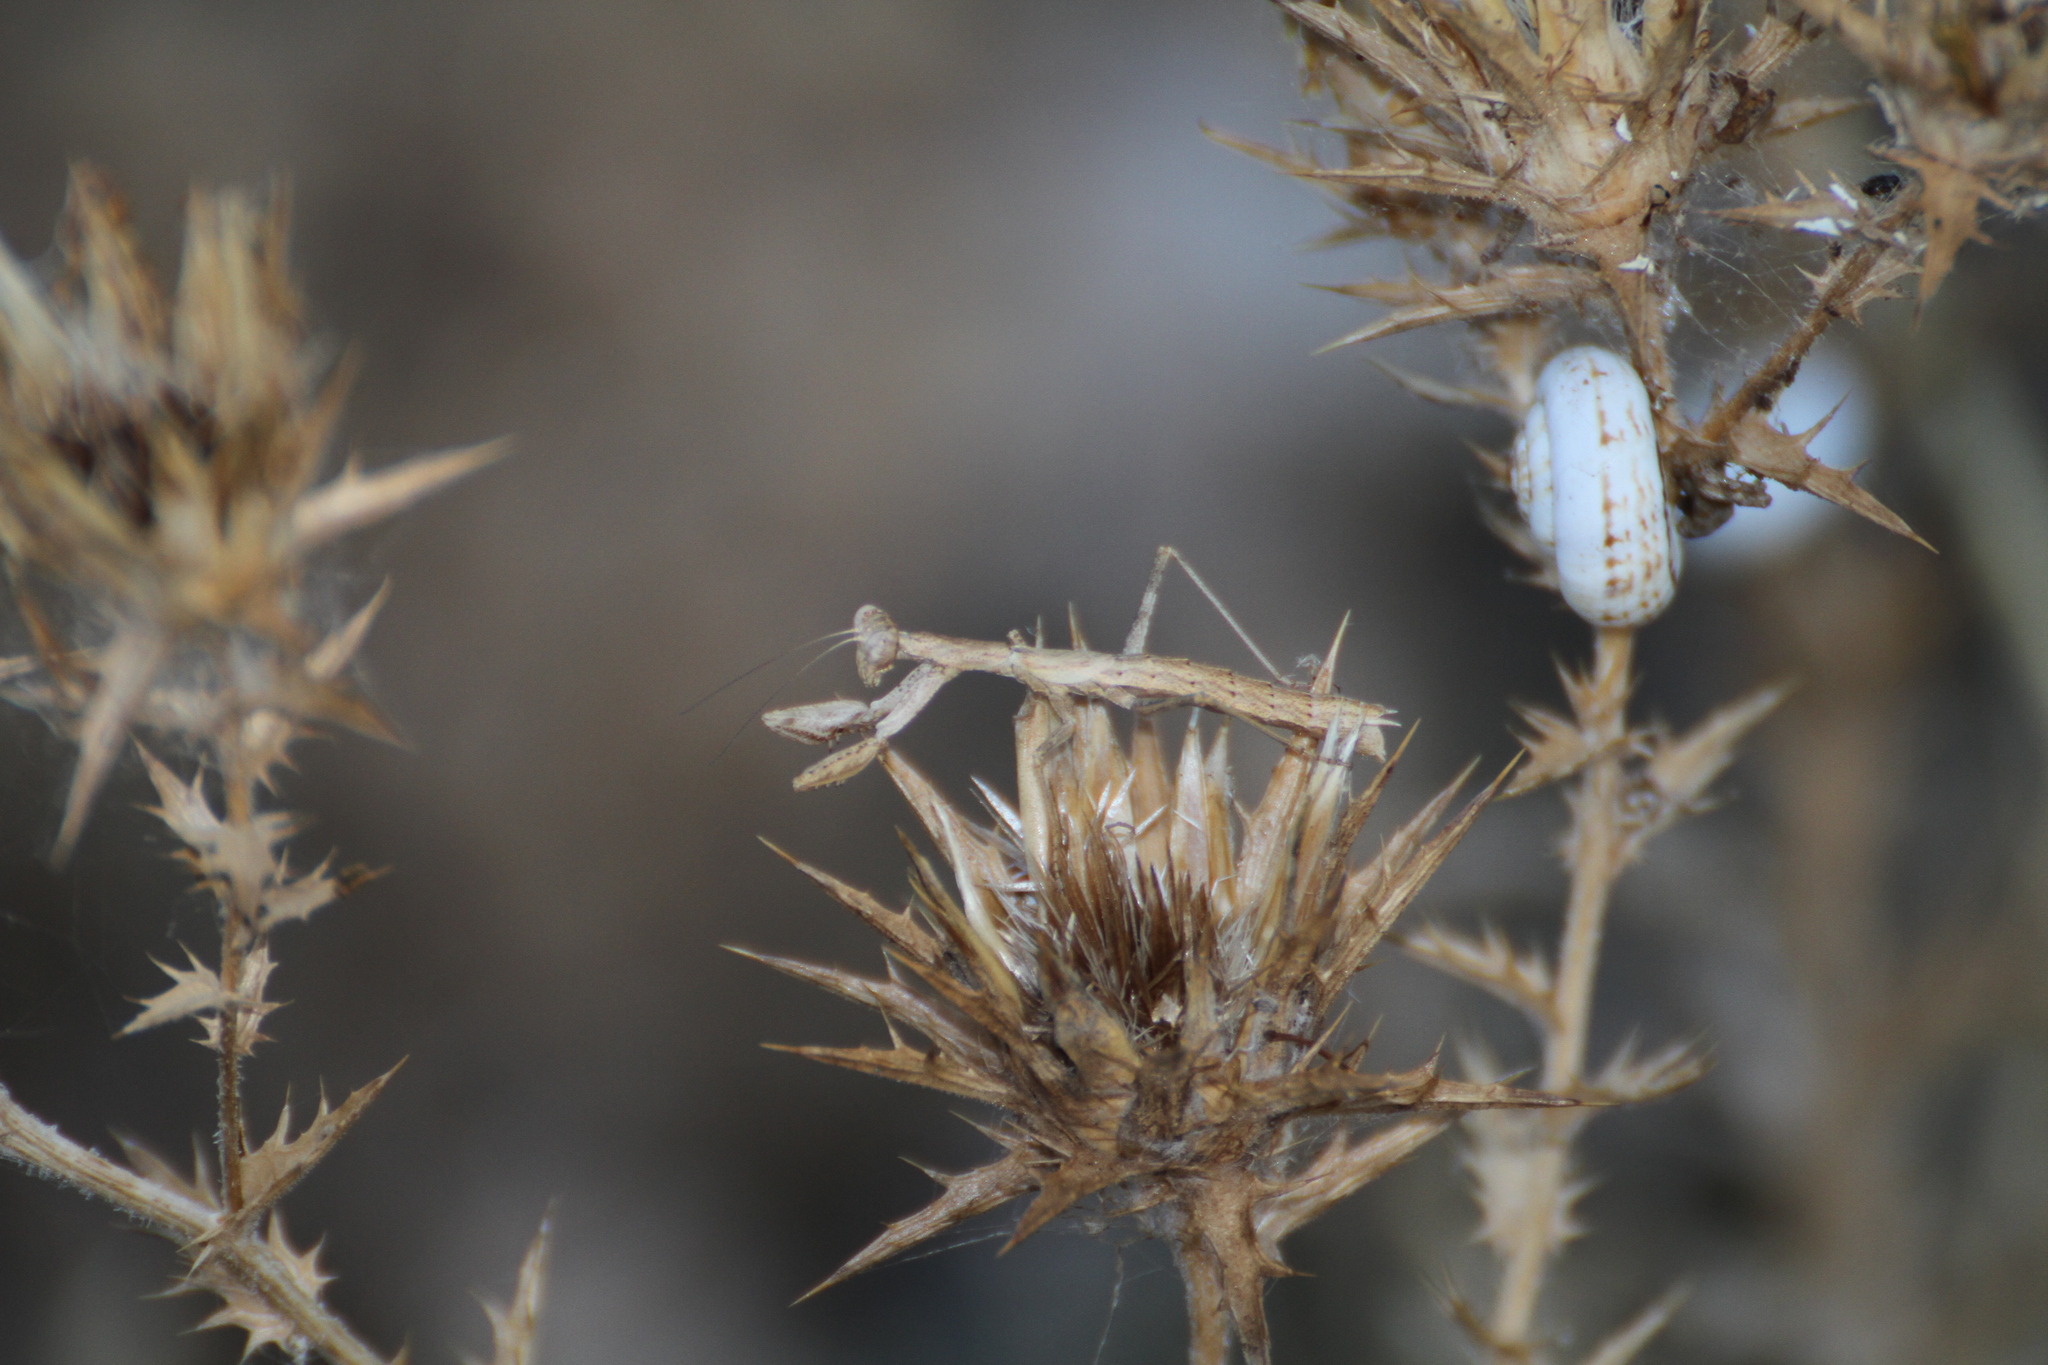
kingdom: Animalia
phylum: Arthropoda
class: Insecta
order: Mantodea
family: Amelidae
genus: Ameles
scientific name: Ameles decolor
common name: Dwarf mantis
